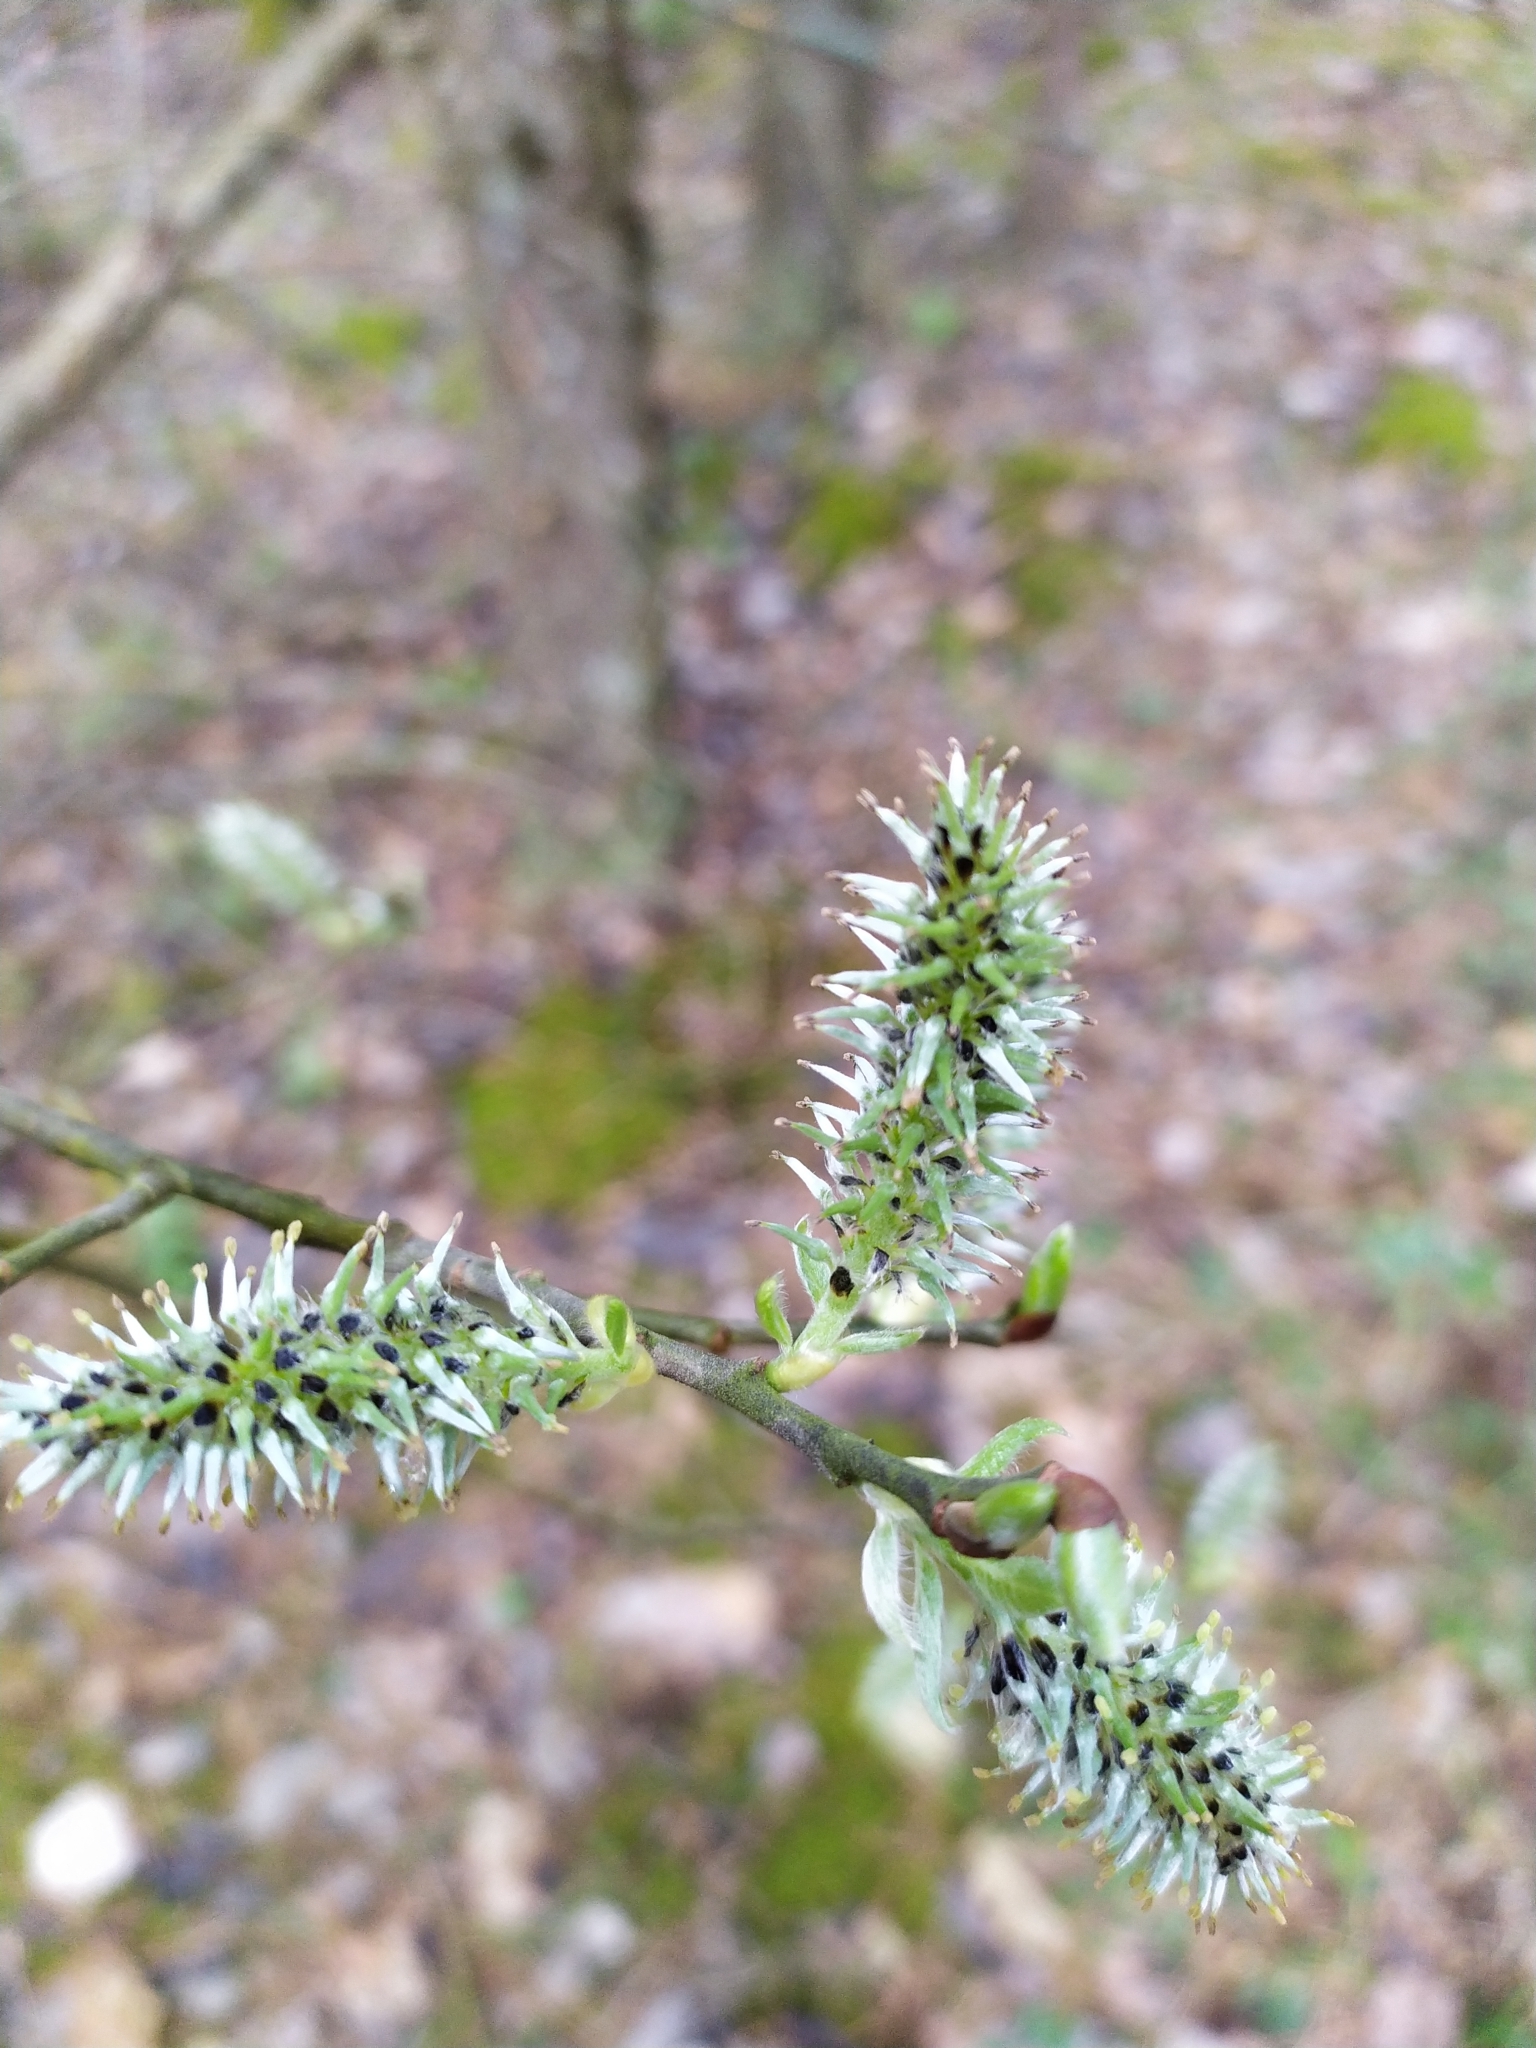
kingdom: Plantae
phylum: Tracheophyta
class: Magnoliopsida
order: Malpighiales
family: Salicaceae
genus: Salix
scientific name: Salix caprea
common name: Goat willow
